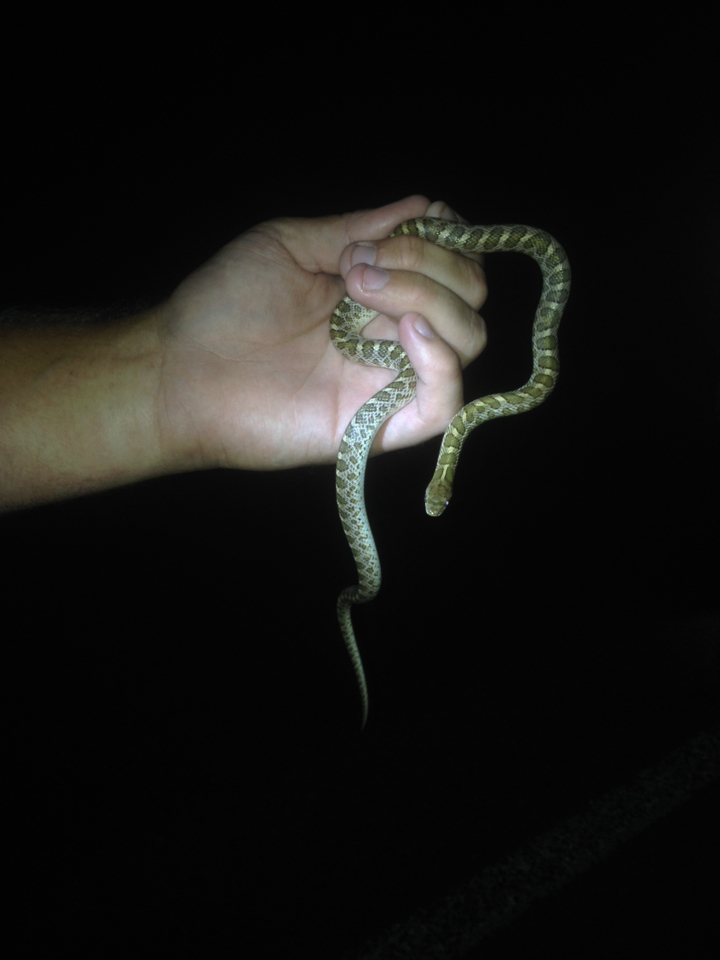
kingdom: Animalia
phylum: Chordata
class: Squamata
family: Colubridae
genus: Arizona
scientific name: Arizona elegans
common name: Glossy snake
